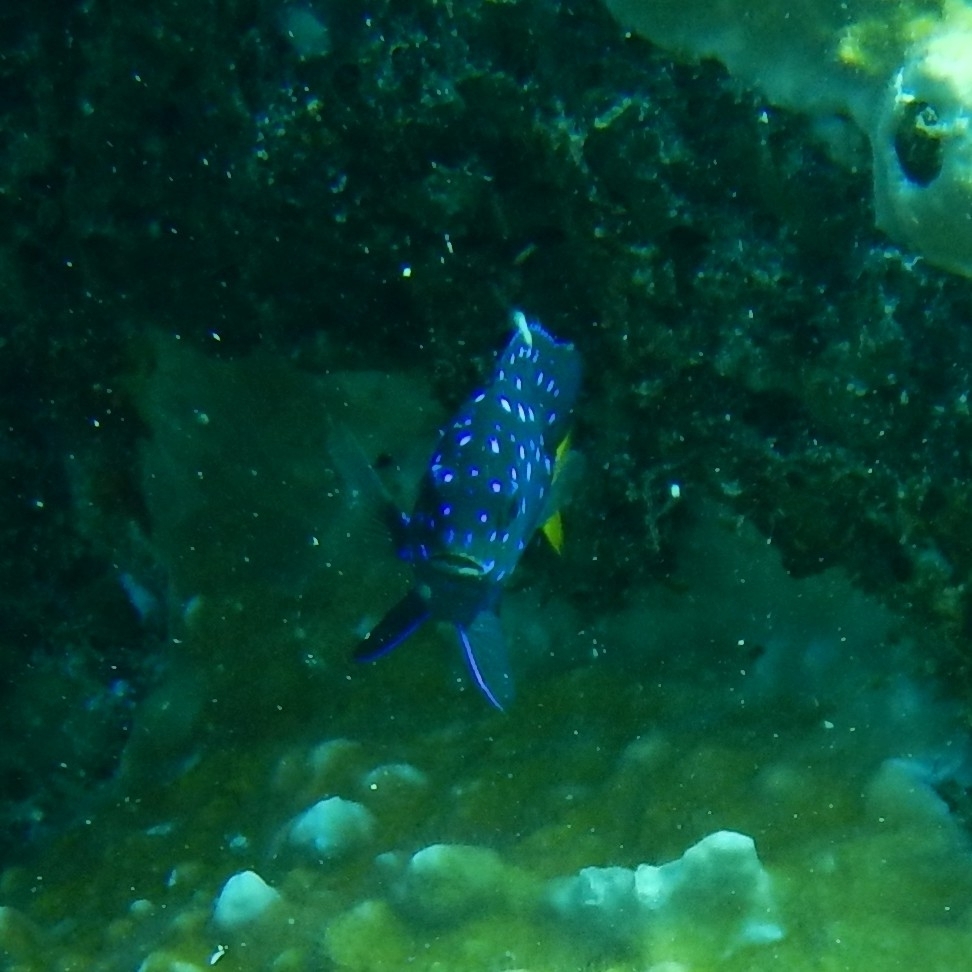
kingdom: Animalia
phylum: Chordata
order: Perciformes
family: Pomacentridae
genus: Microspathodon
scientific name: Microspathodon chrysurus
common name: Yellowtail damselfish
